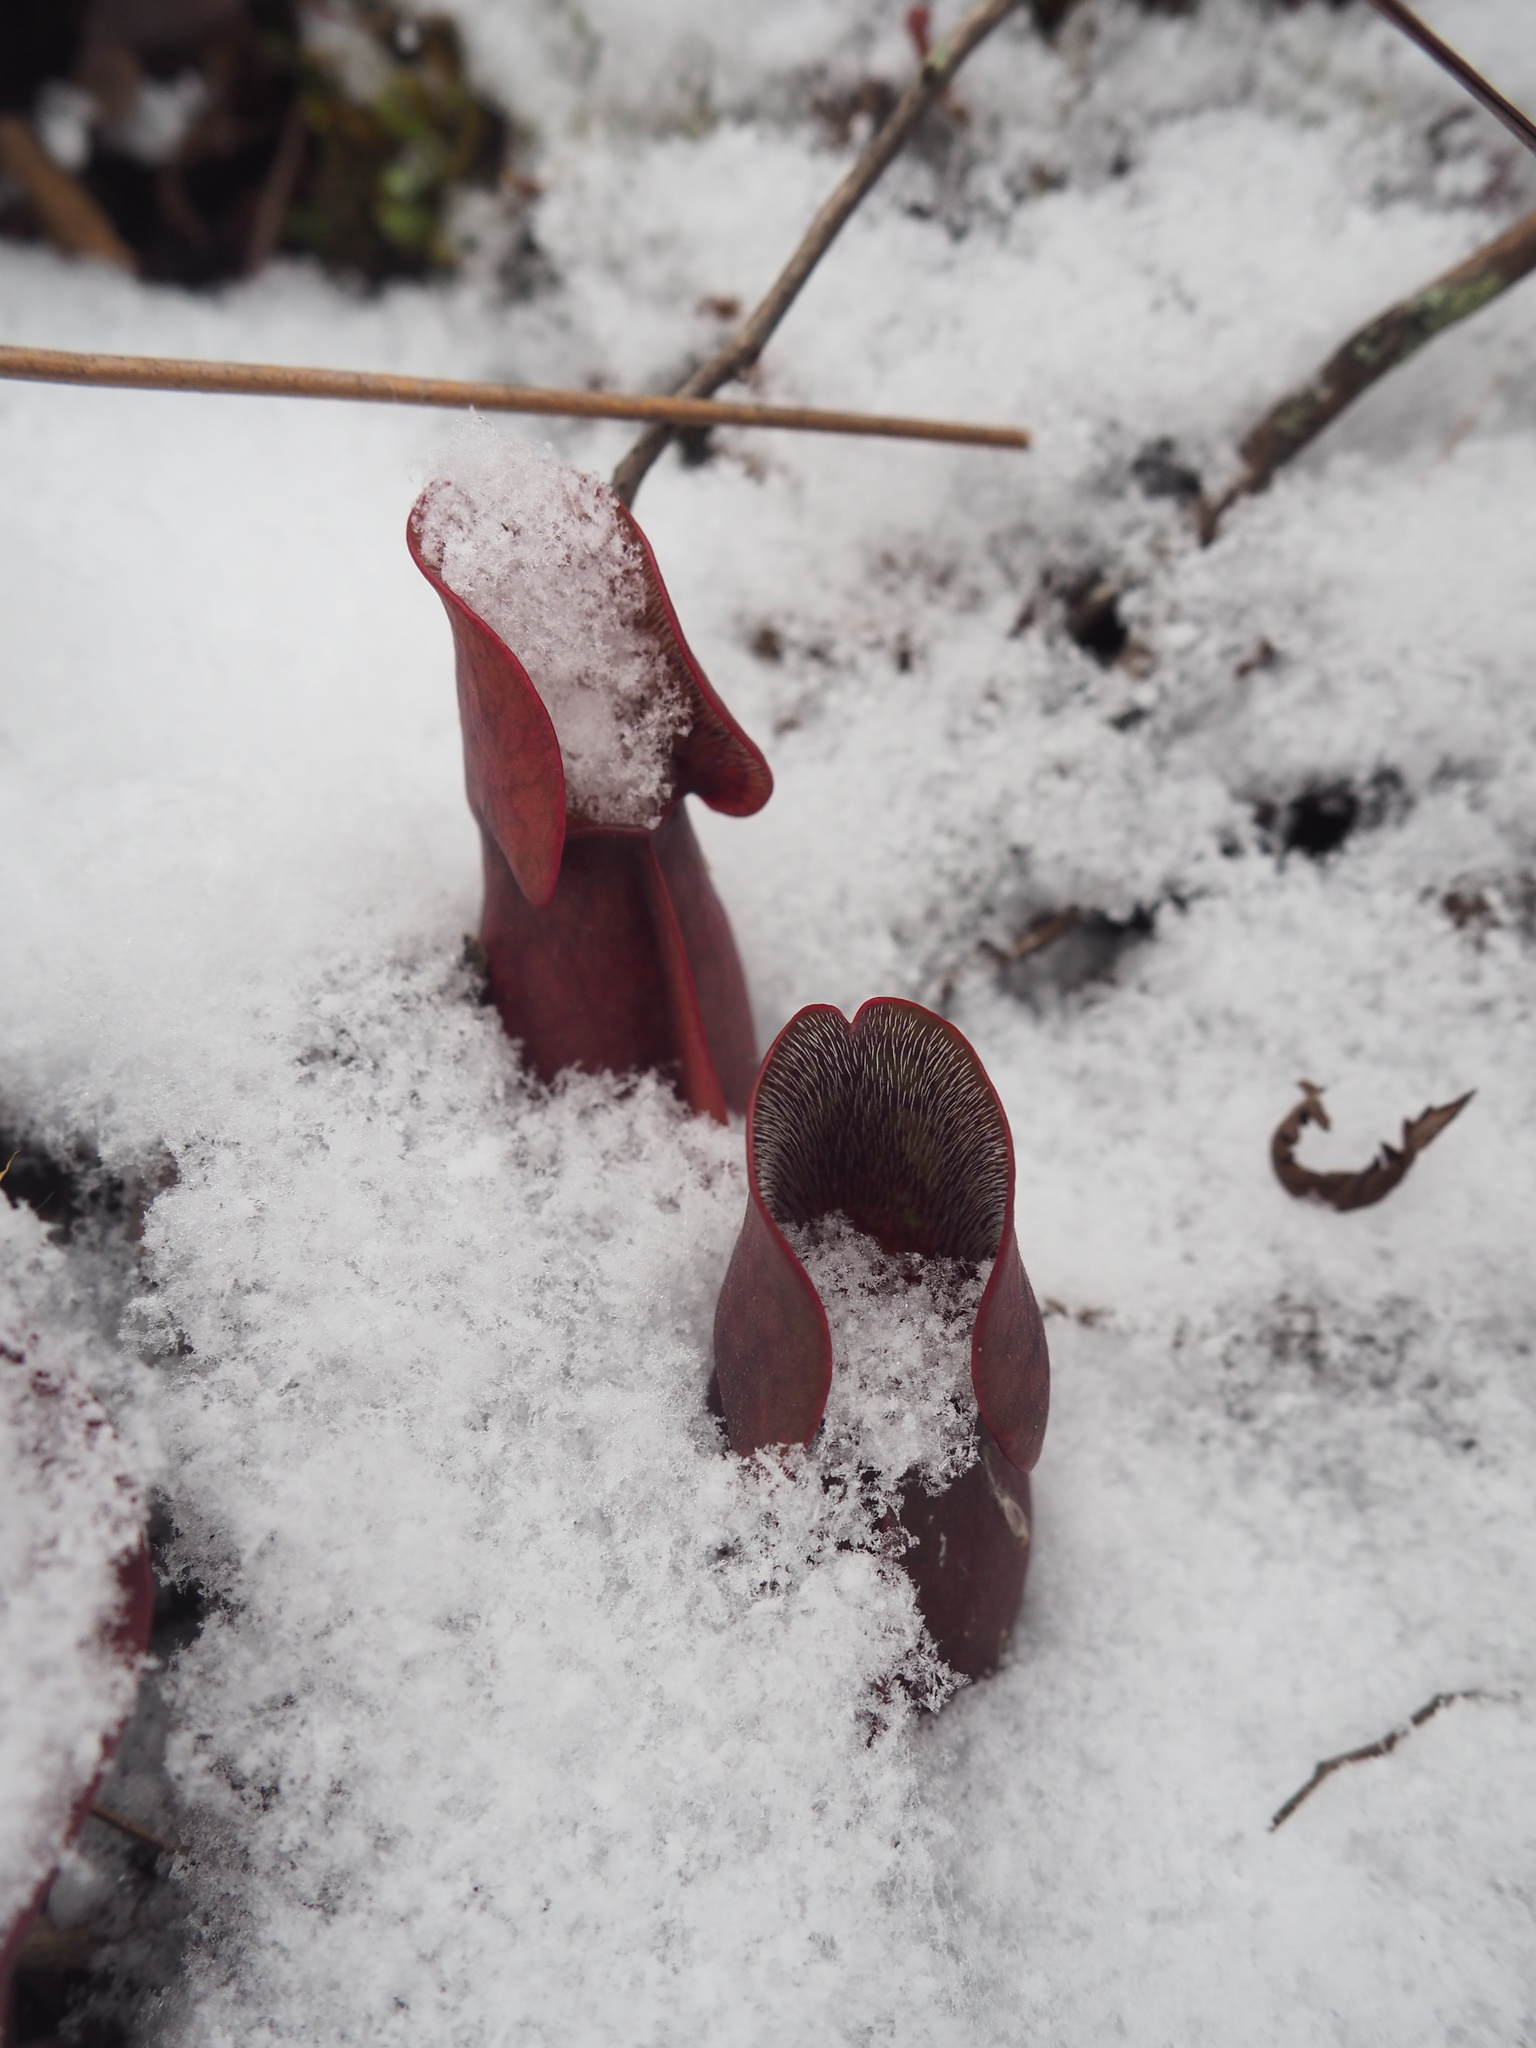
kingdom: Plantae
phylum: Tracheophyta
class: Magnoliopsida
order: Ericales
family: Sarraceniaceae
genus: Sarracenia
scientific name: Sarracenia purpurea
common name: Pitcherplant
